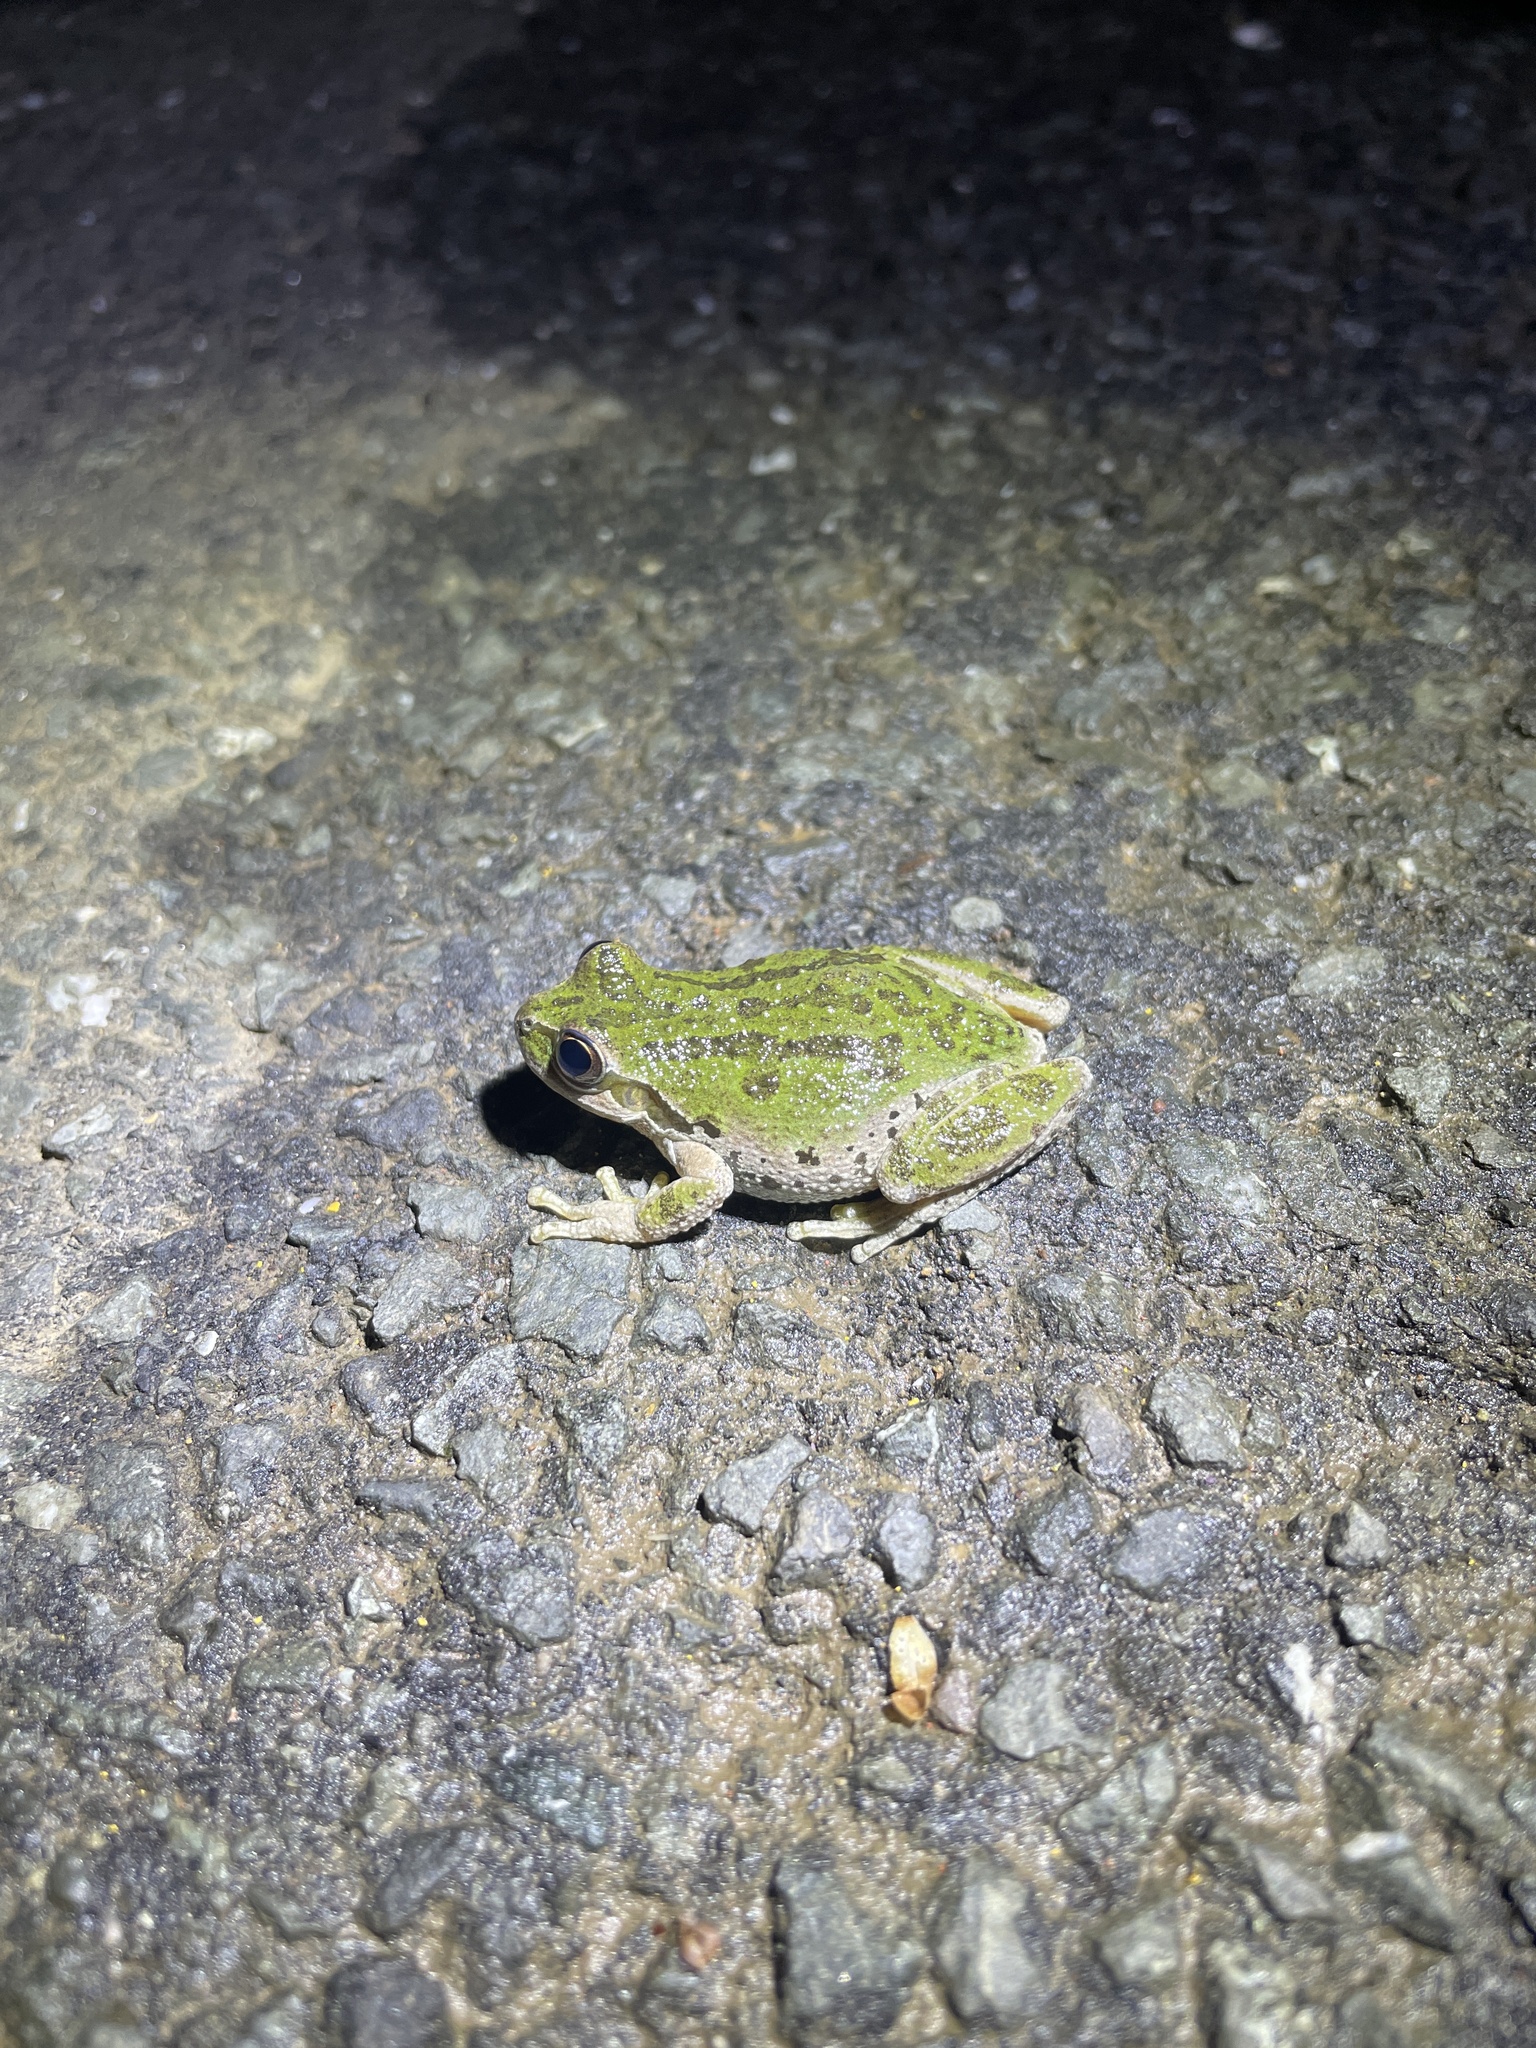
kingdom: Animalia
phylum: Chordata
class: Amphibia
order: Anura
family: Hylidae
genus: Pseudacris
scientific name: Pseudacris regilla
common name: Pacific chorus frog
